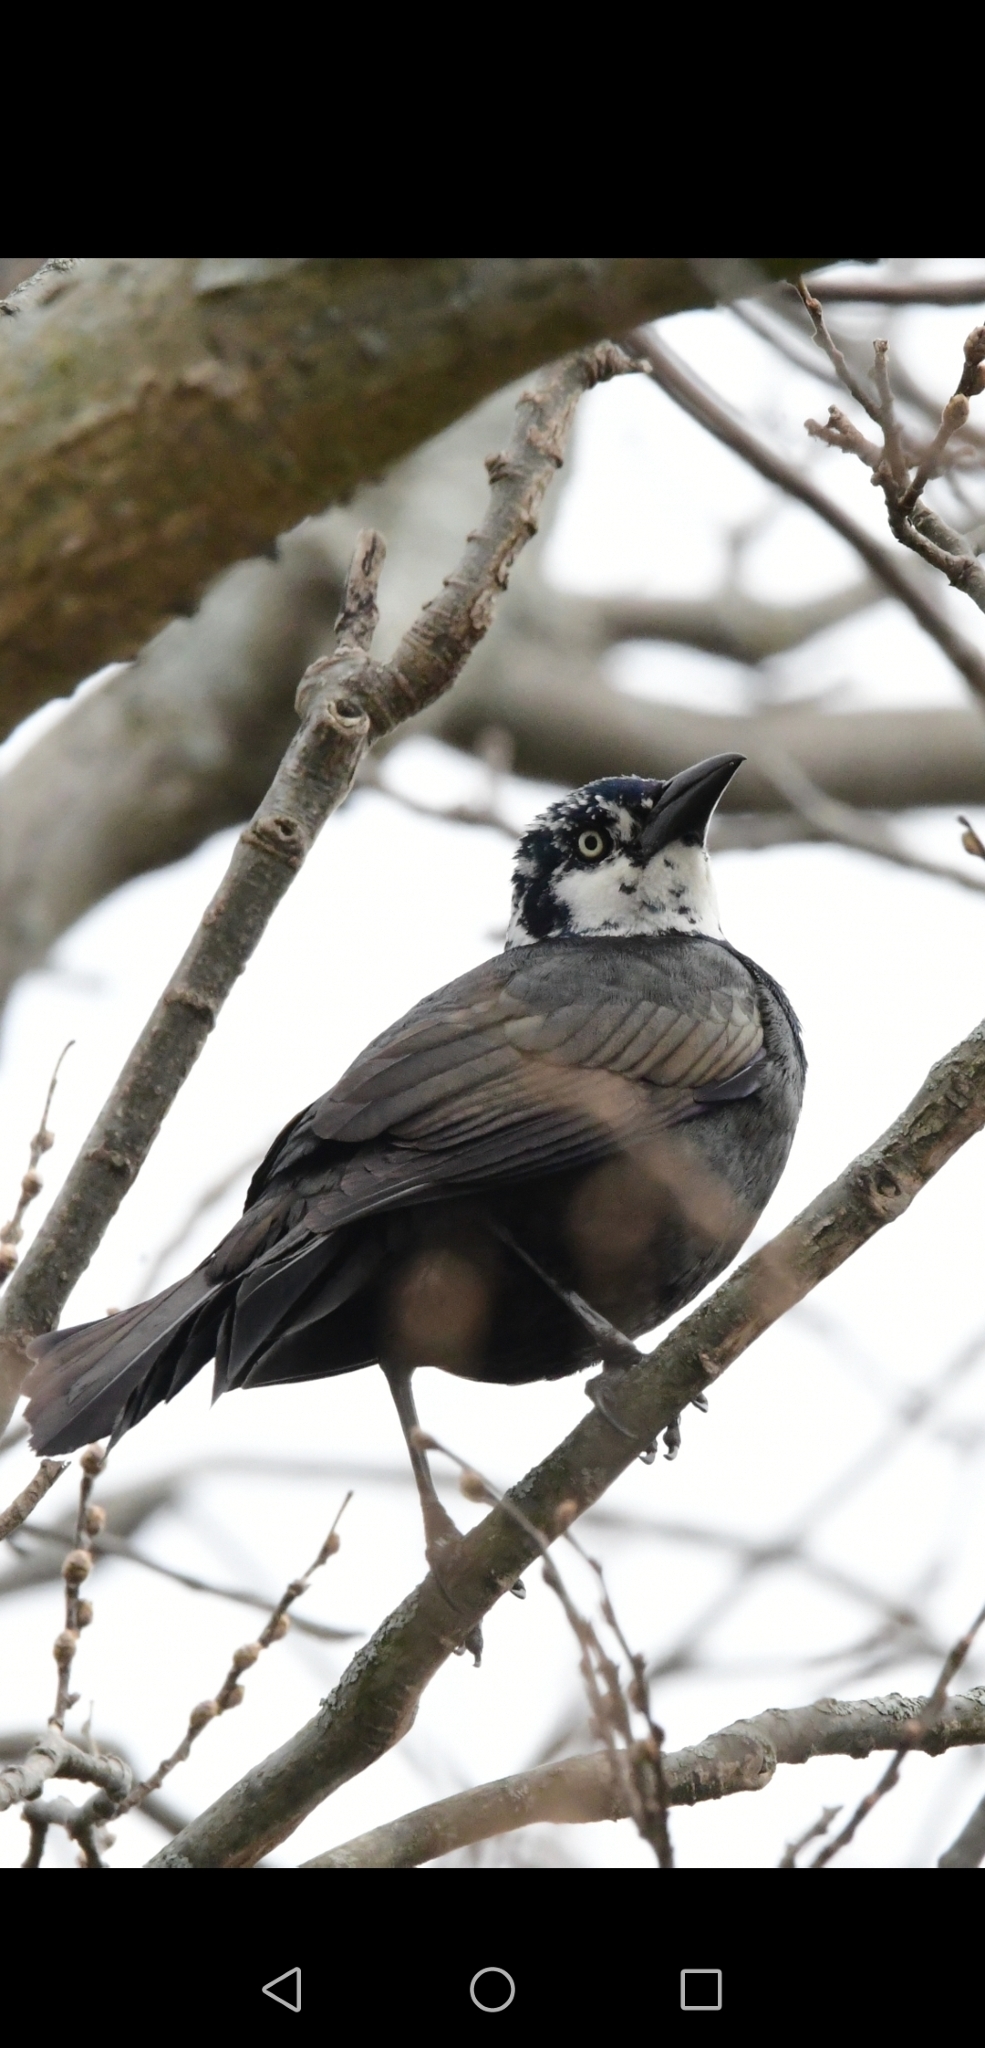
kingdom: Animalia
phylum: Chordata
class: Aves
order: Passeriformes
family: Icteridae
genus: Quiscalus
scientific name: Quiscalus quiscula
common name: Common grackle
